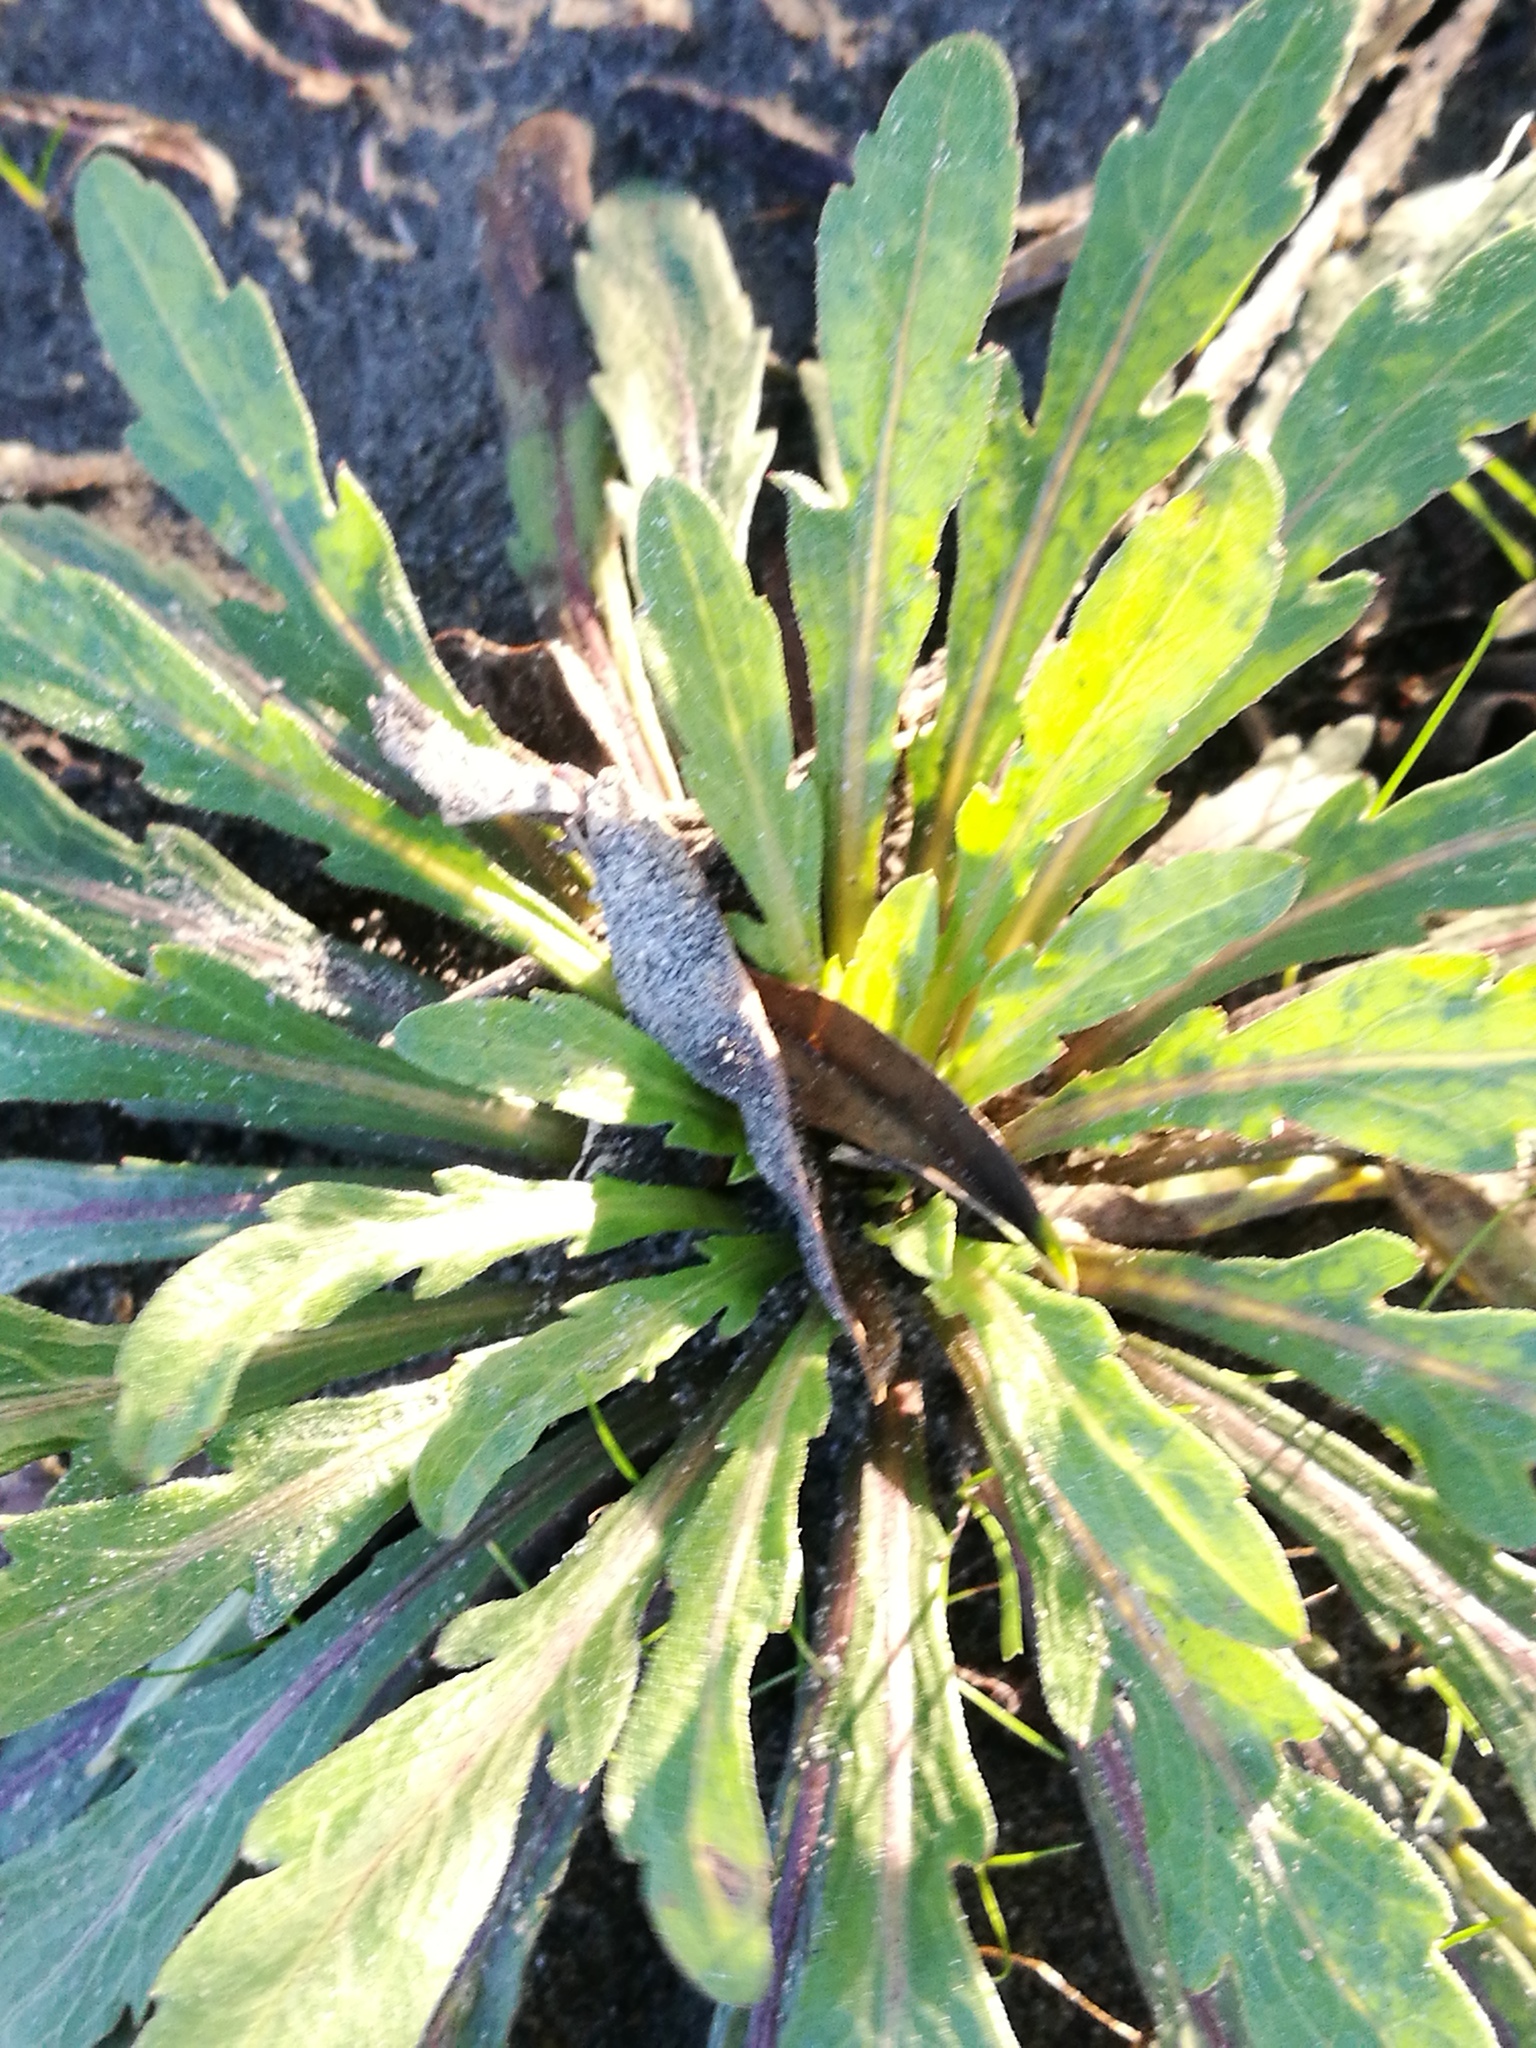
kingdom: Plantae
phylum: Tracheophyta
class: Magnoliopsida
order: Brassicales
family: Brassicaceae
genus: Capsella
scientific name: Capsella bursa-pastoris
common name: Shepherd's purse
